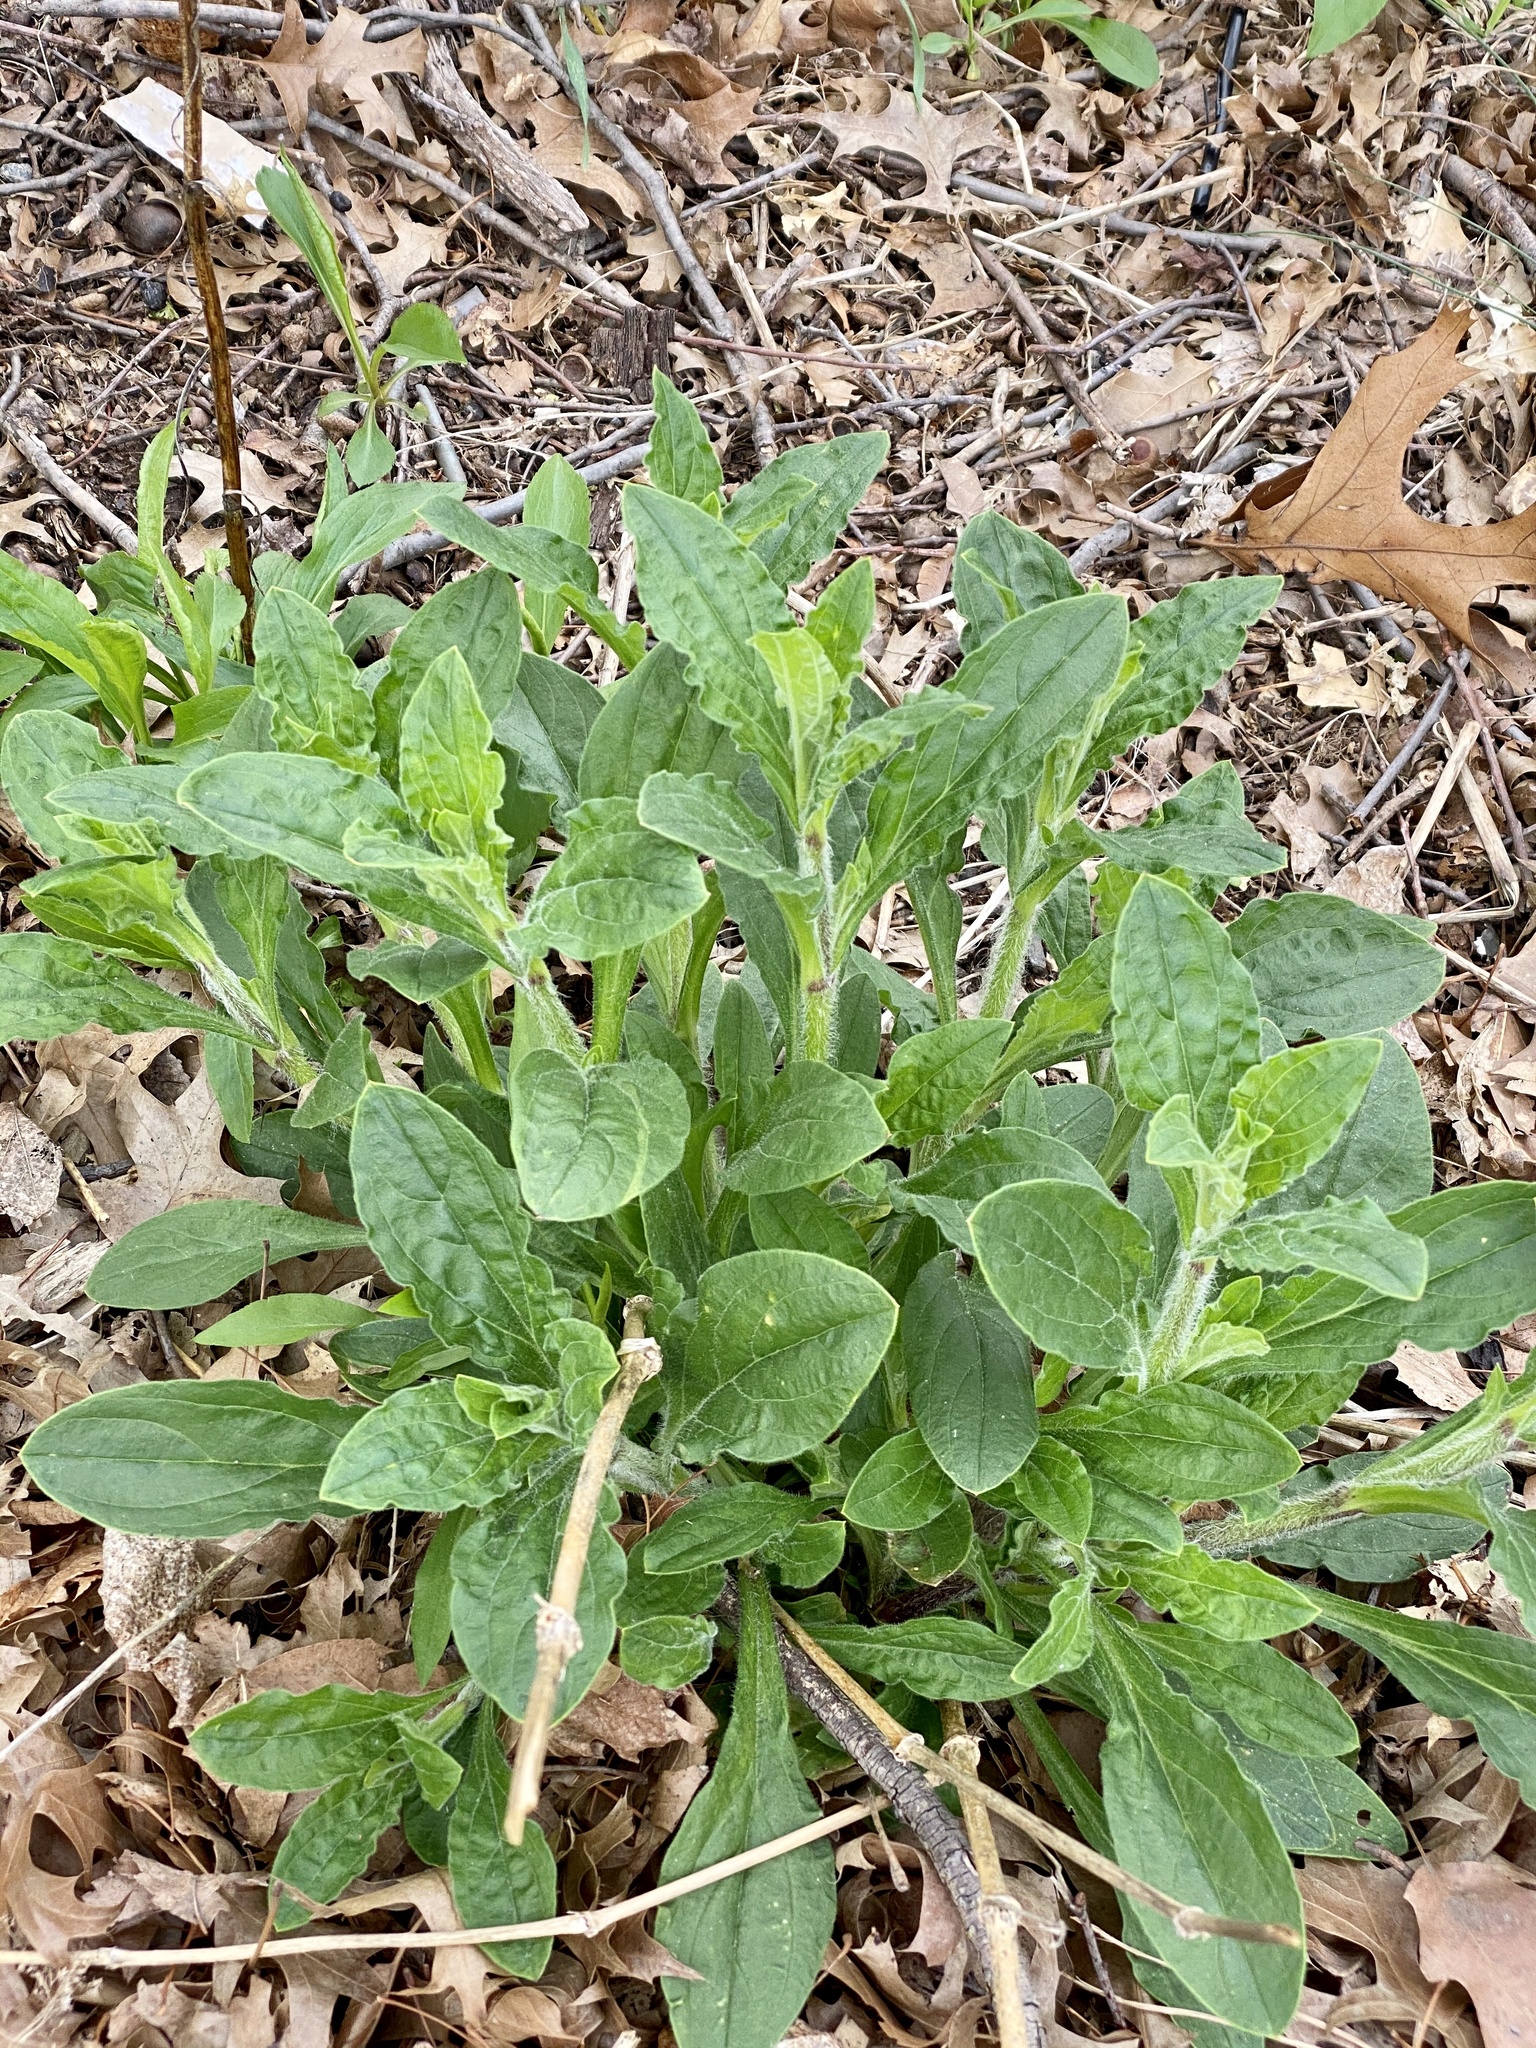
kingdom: Plantae
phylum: Tracheophyta
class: Magnoliopsida
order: Caryophyllales
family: Caryophyllaceae
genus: Silene
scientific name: Silene latifolia
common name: White campion
